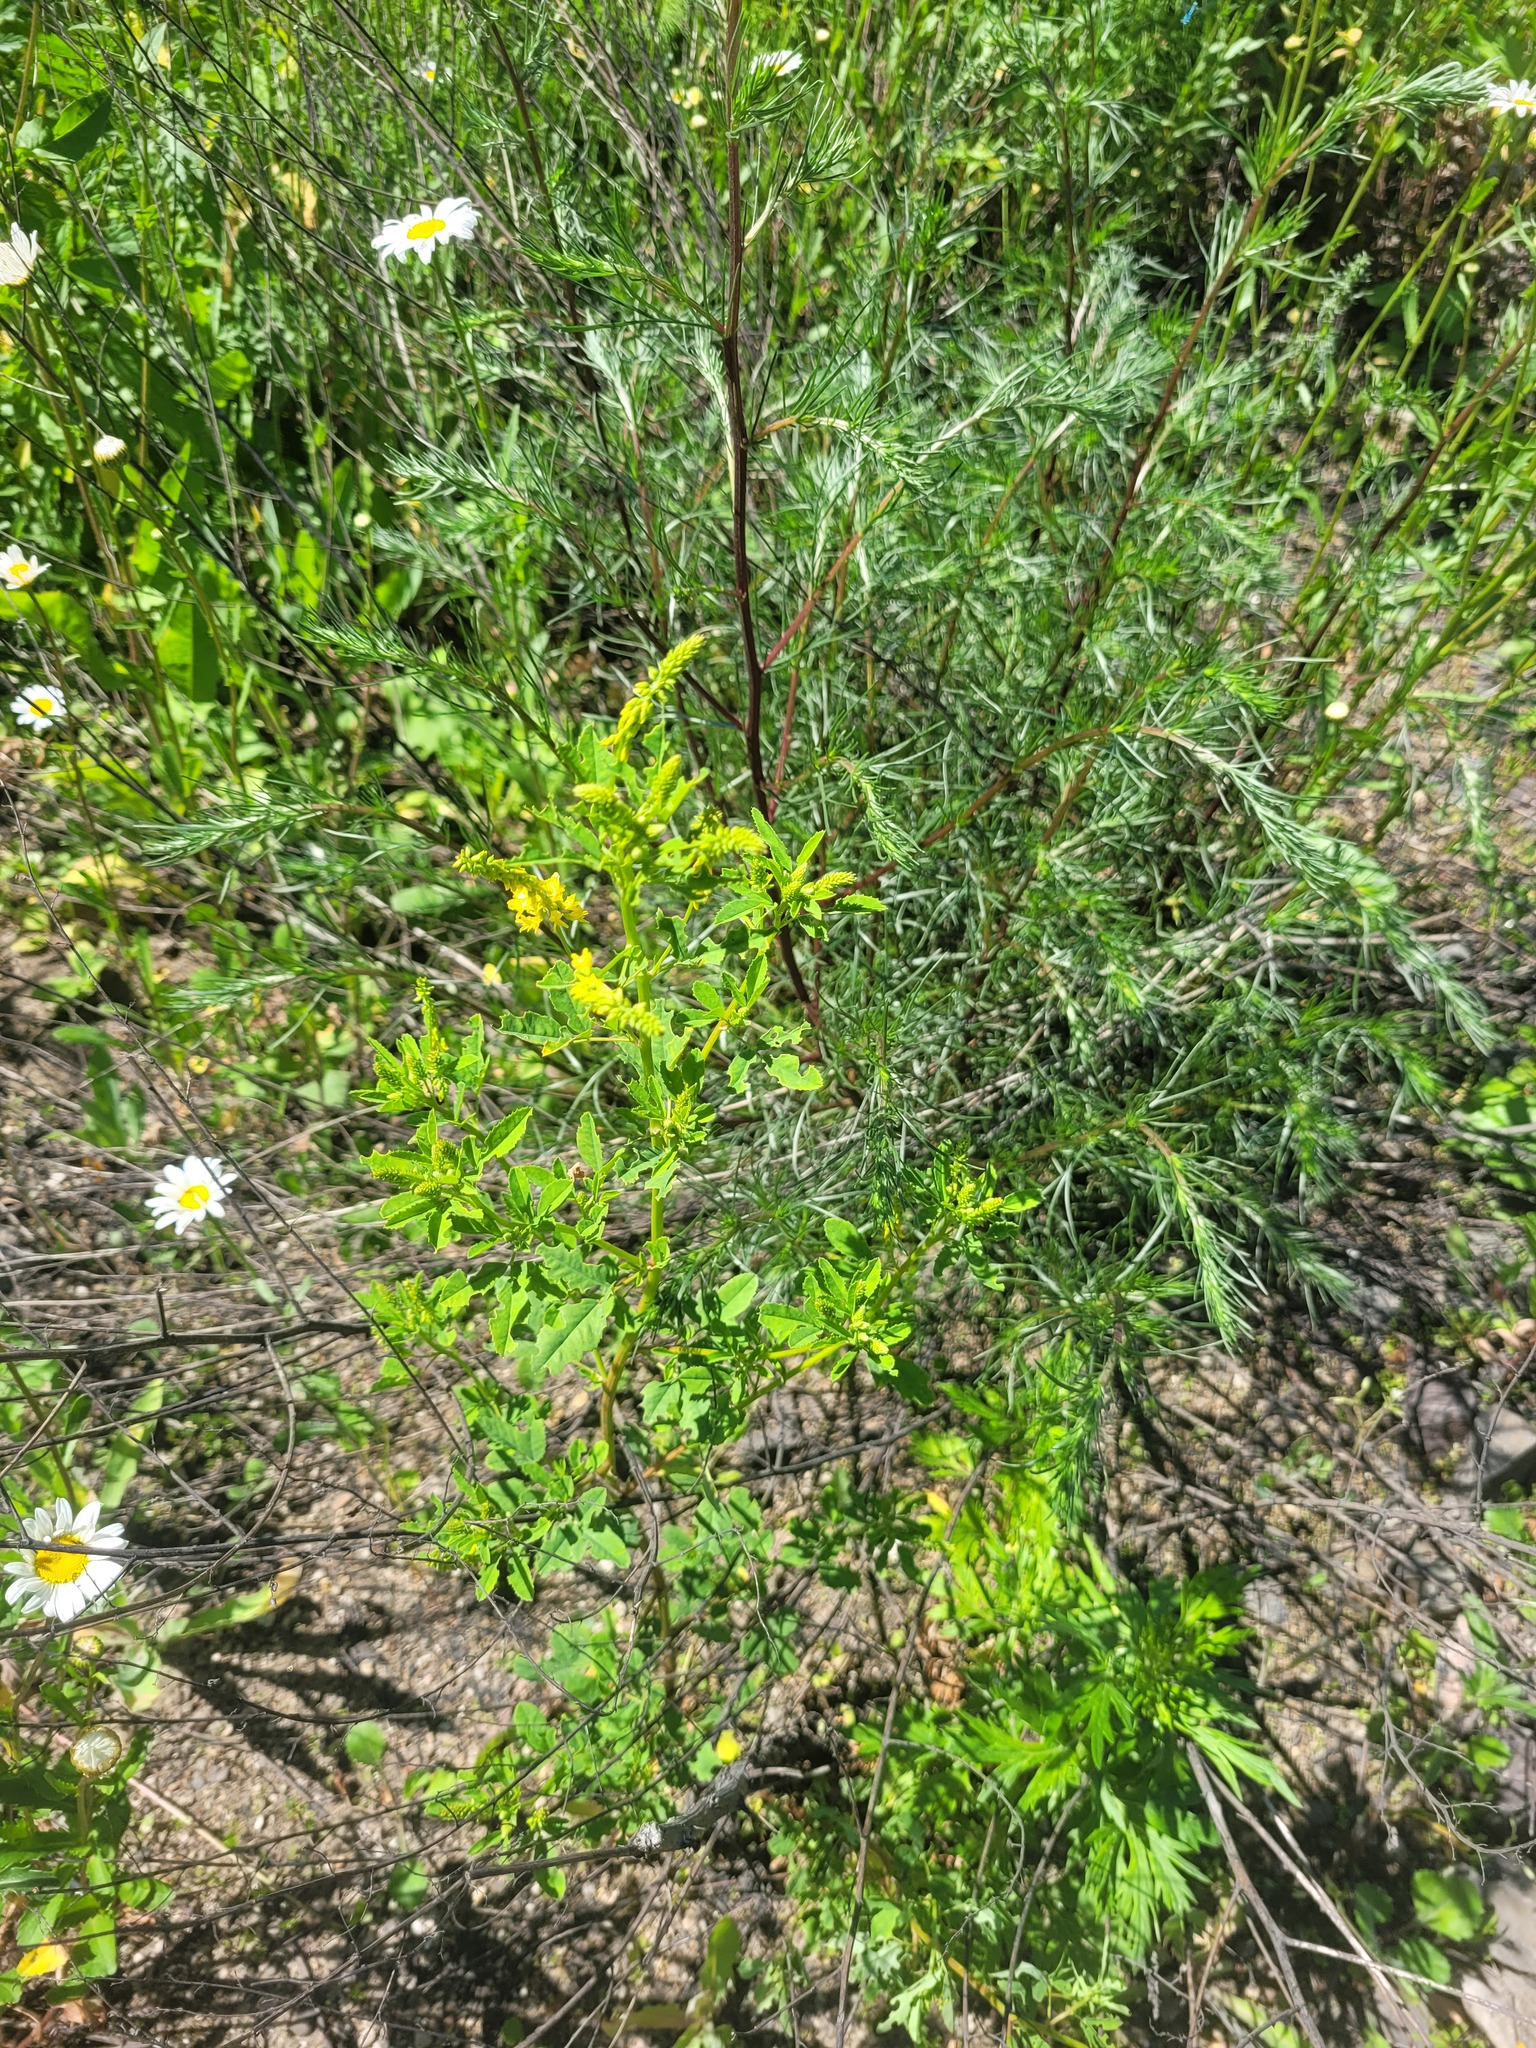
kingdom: Plantae
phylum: Tracheophyta
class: Magnoliopsida
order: Fabales
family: Fabaceae
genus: Melilotus
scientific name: Melilotus officinalis
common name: Sweetclover
